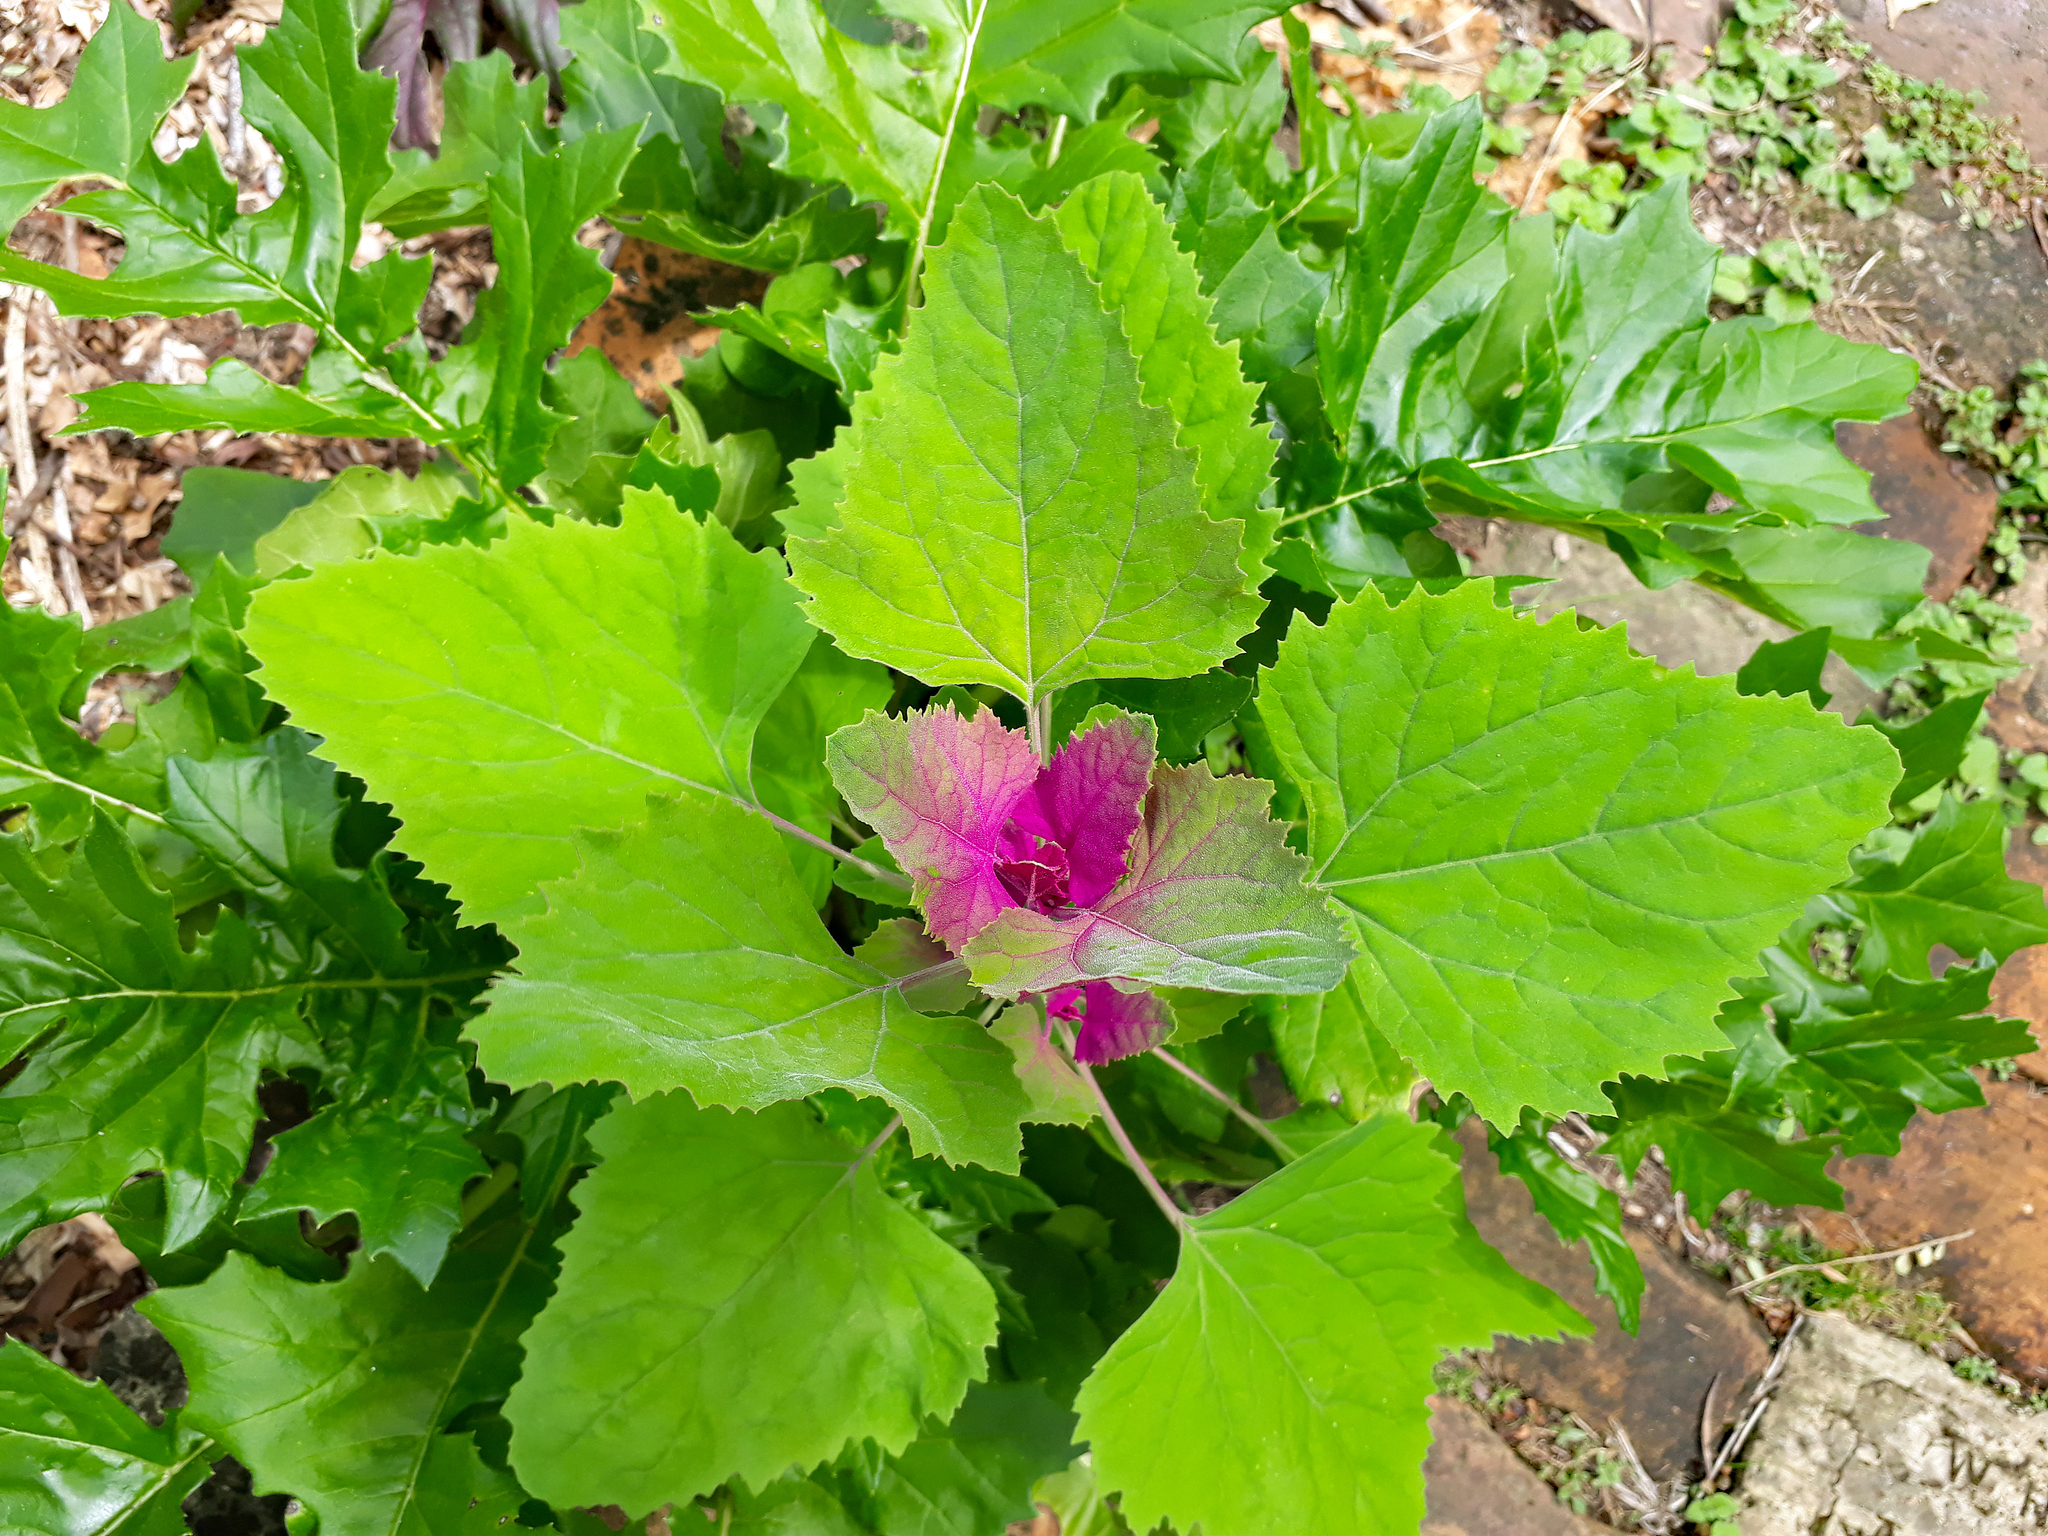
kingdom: Plantae
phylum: Tracheophyta
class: Magnoliopsida
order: Caryophyllales
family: Amaranthaceae
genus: Chenopodium
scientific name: Chenopodium giganteum
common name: Magentaspreen
